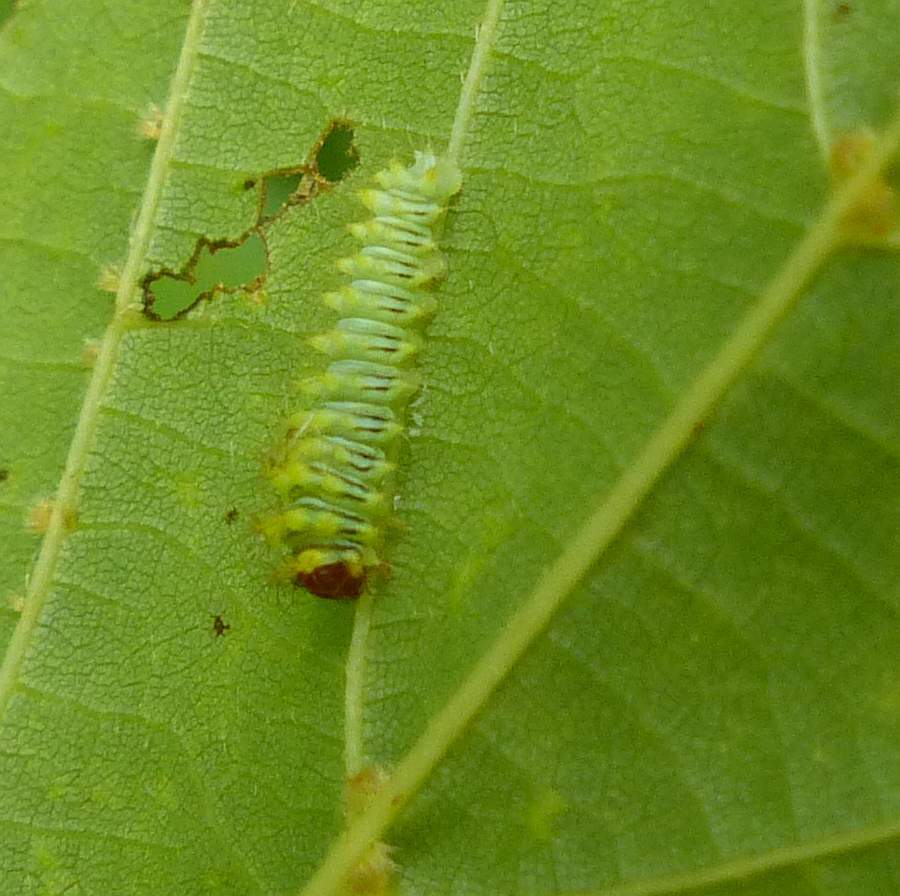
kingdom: Animalia
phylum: Arthropoda
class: Insecta
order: Lepidoptera
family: Saturniidae
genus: Antheraea
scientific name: Antheraea polyphemus
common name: Polyphemus moth
